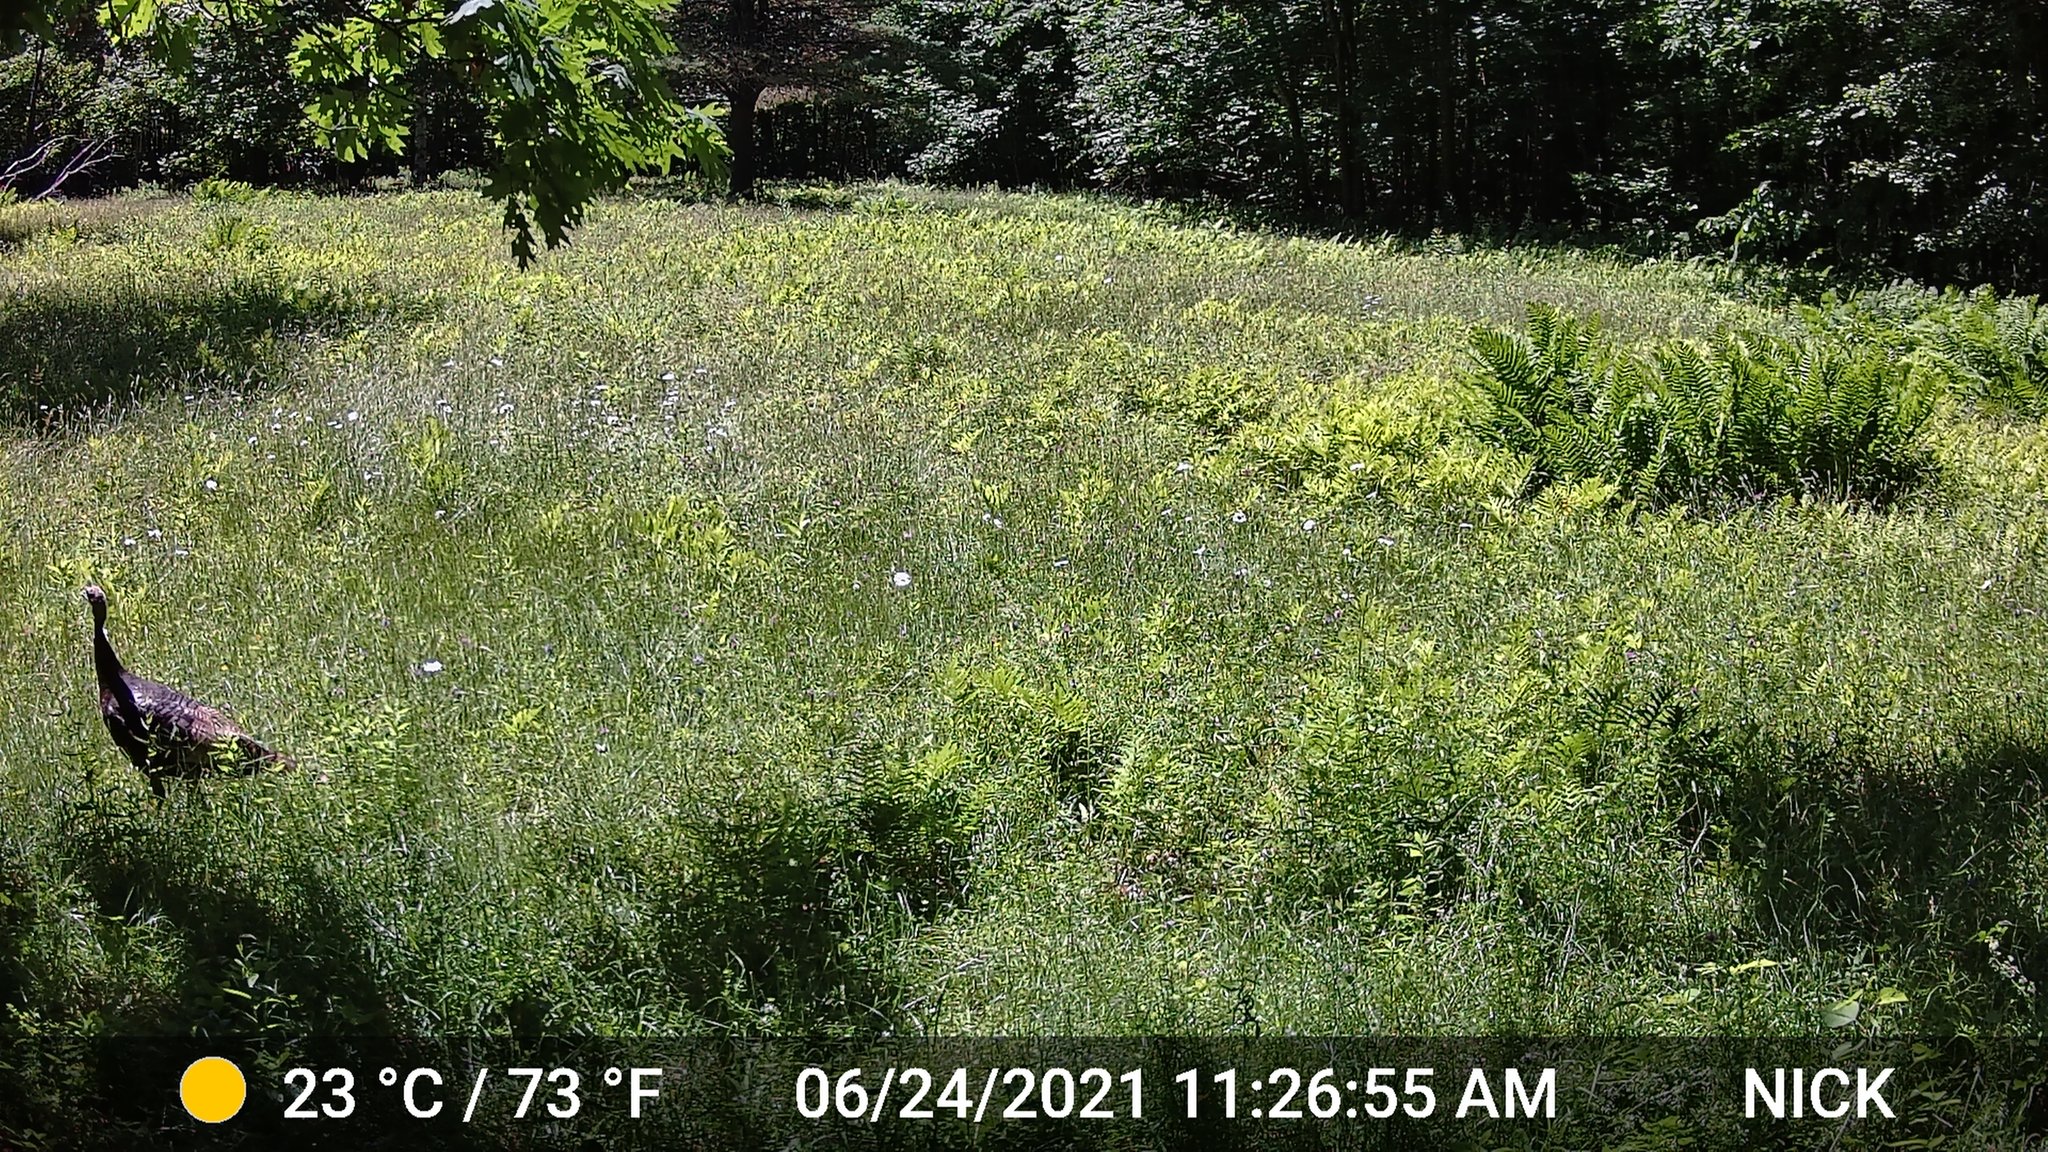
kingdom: Animalia
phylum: Chordata
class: Aves
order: Galliformes
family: Phasianidae
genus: Meleagris
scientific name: Meleagris gallopavo
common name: Wild turkey
